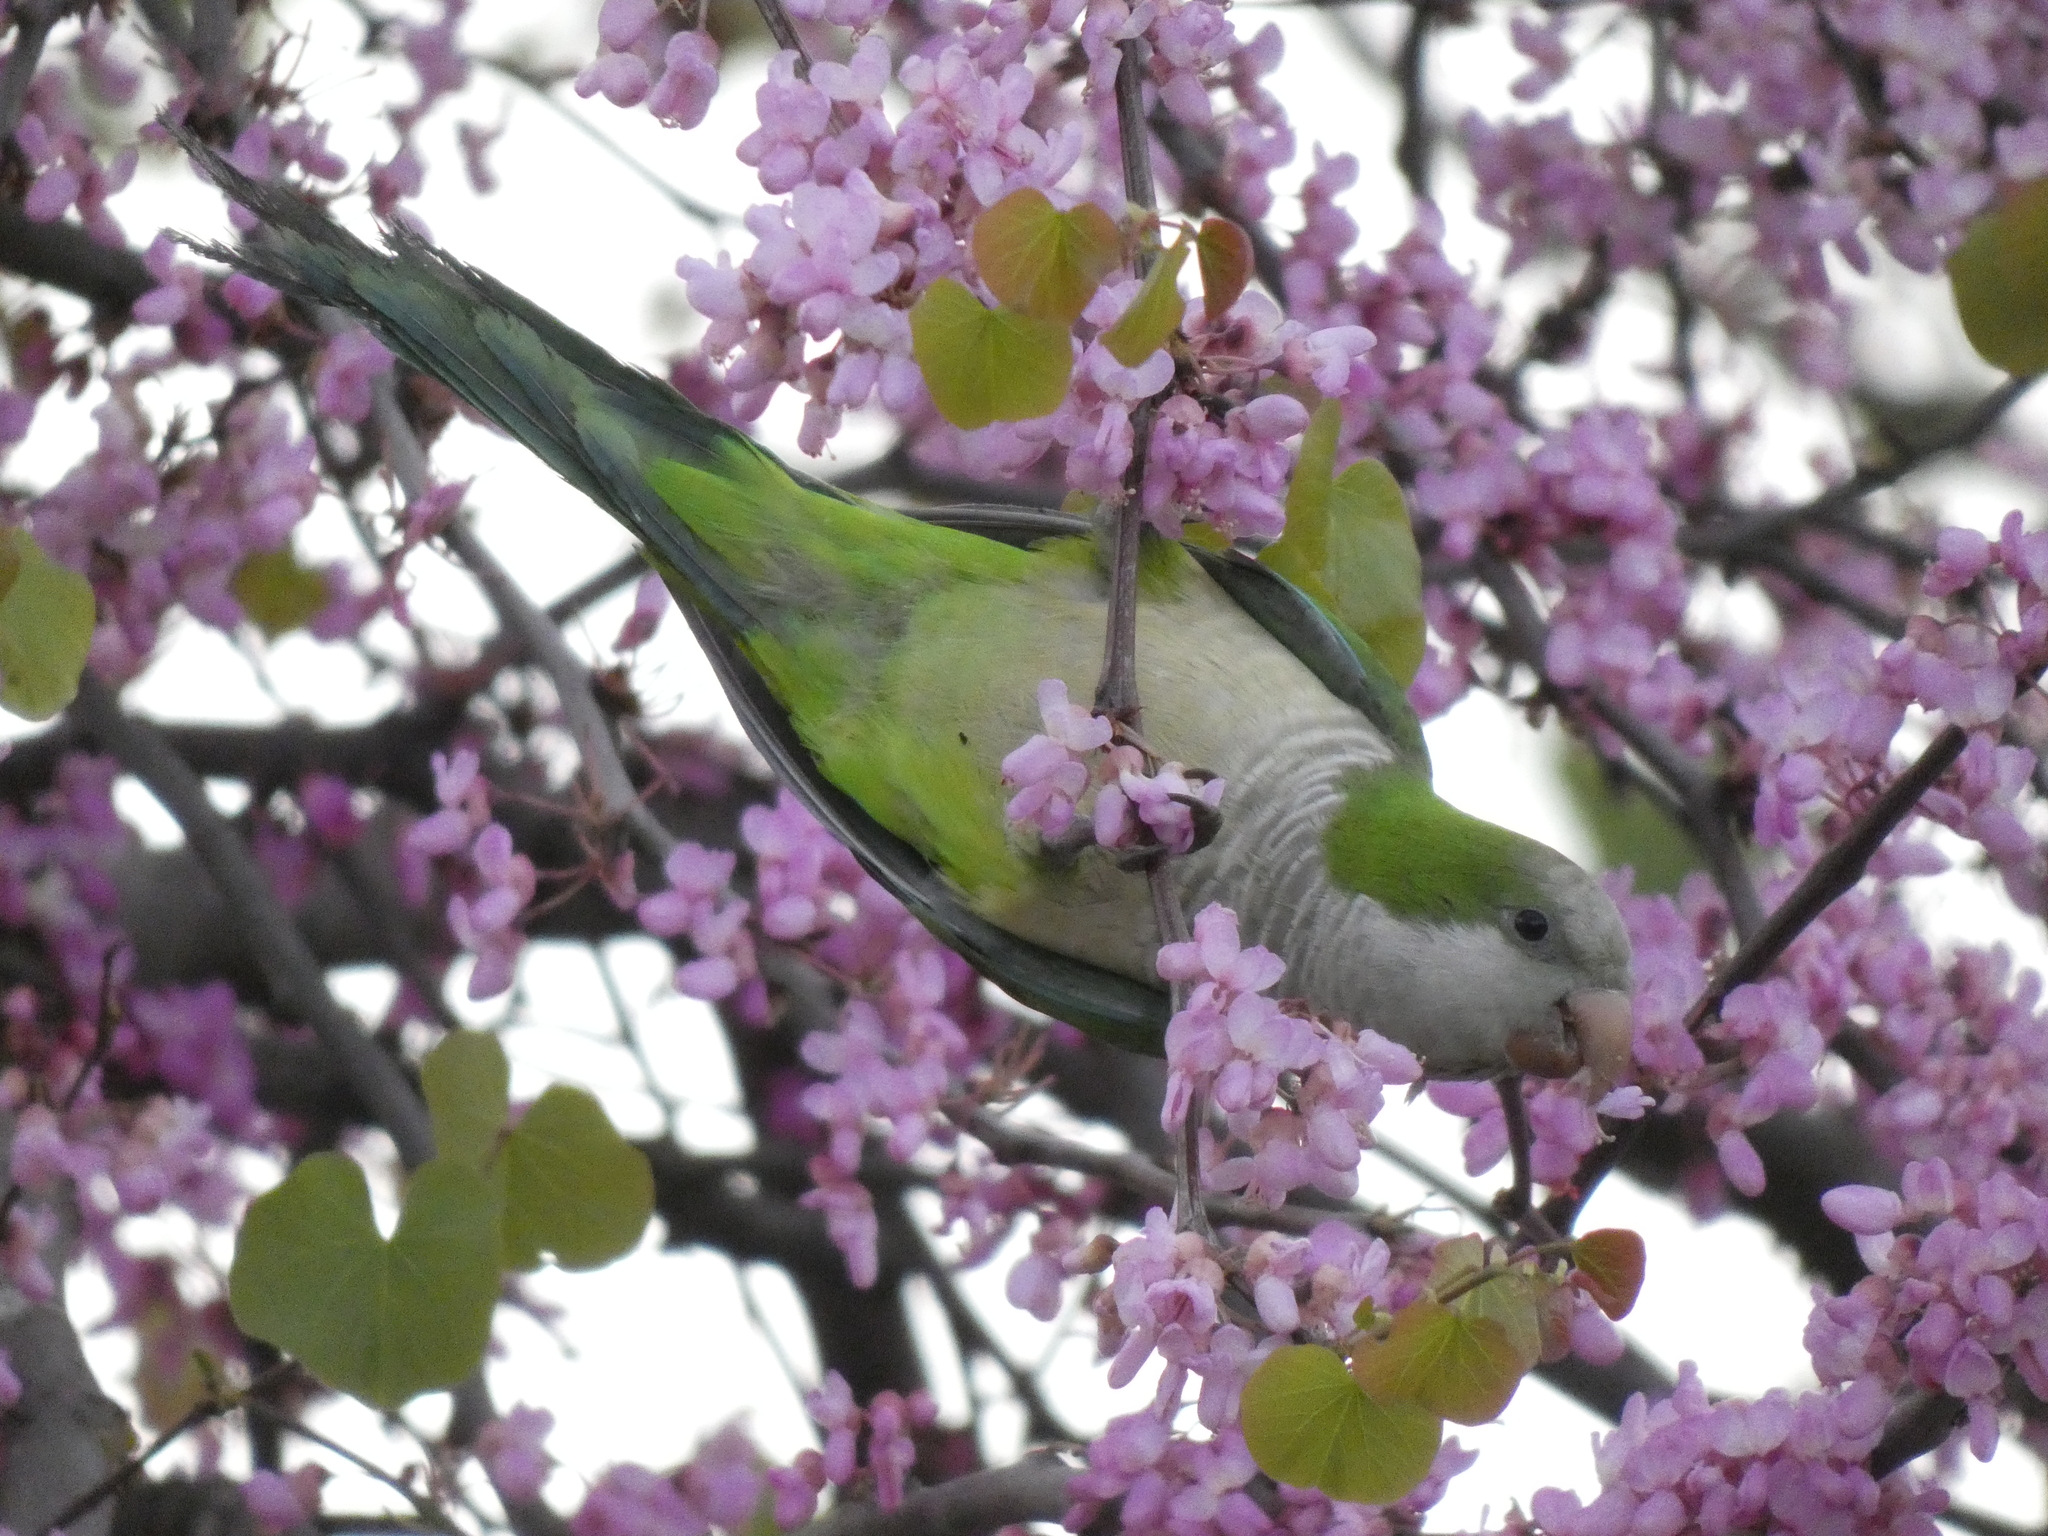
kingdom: Animalia
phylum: Chordata
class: Aves
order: Psittaciformes
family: Psittacidae
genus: Myiopsitta
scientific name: Myiopsitta monachus
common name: Monk parakeet
